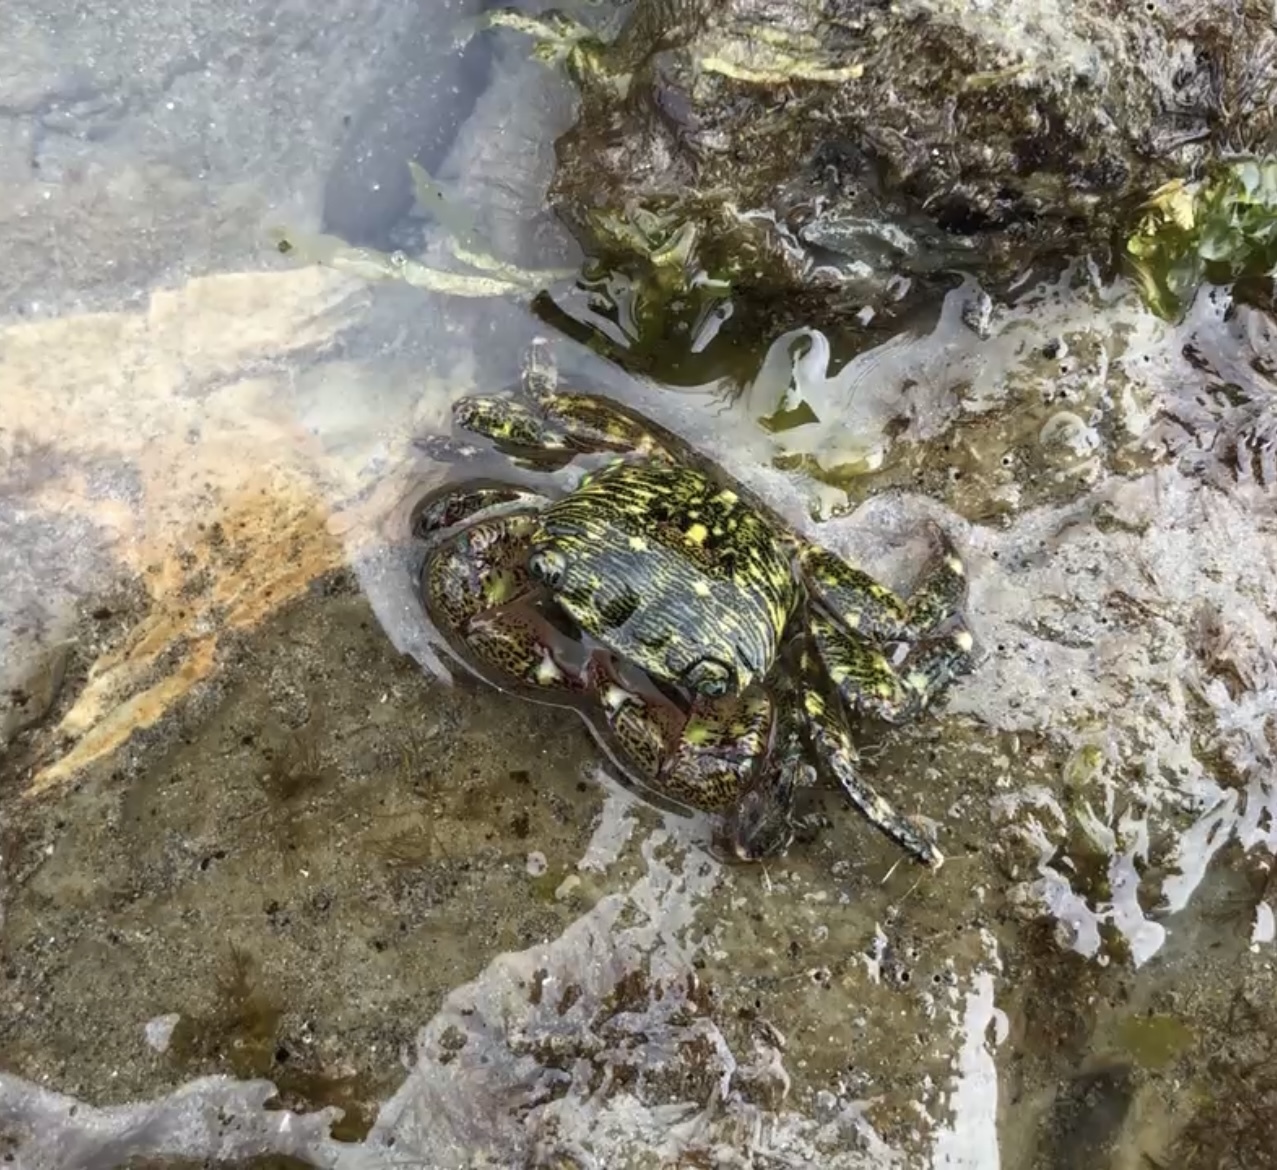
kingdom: Animalia
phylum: Arthropoda
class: Malacostraca
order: Decapoda
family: Grapsidae
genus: Pachygrapsus
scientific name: Pachygrapsus crassipes
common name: Striped shore crab
